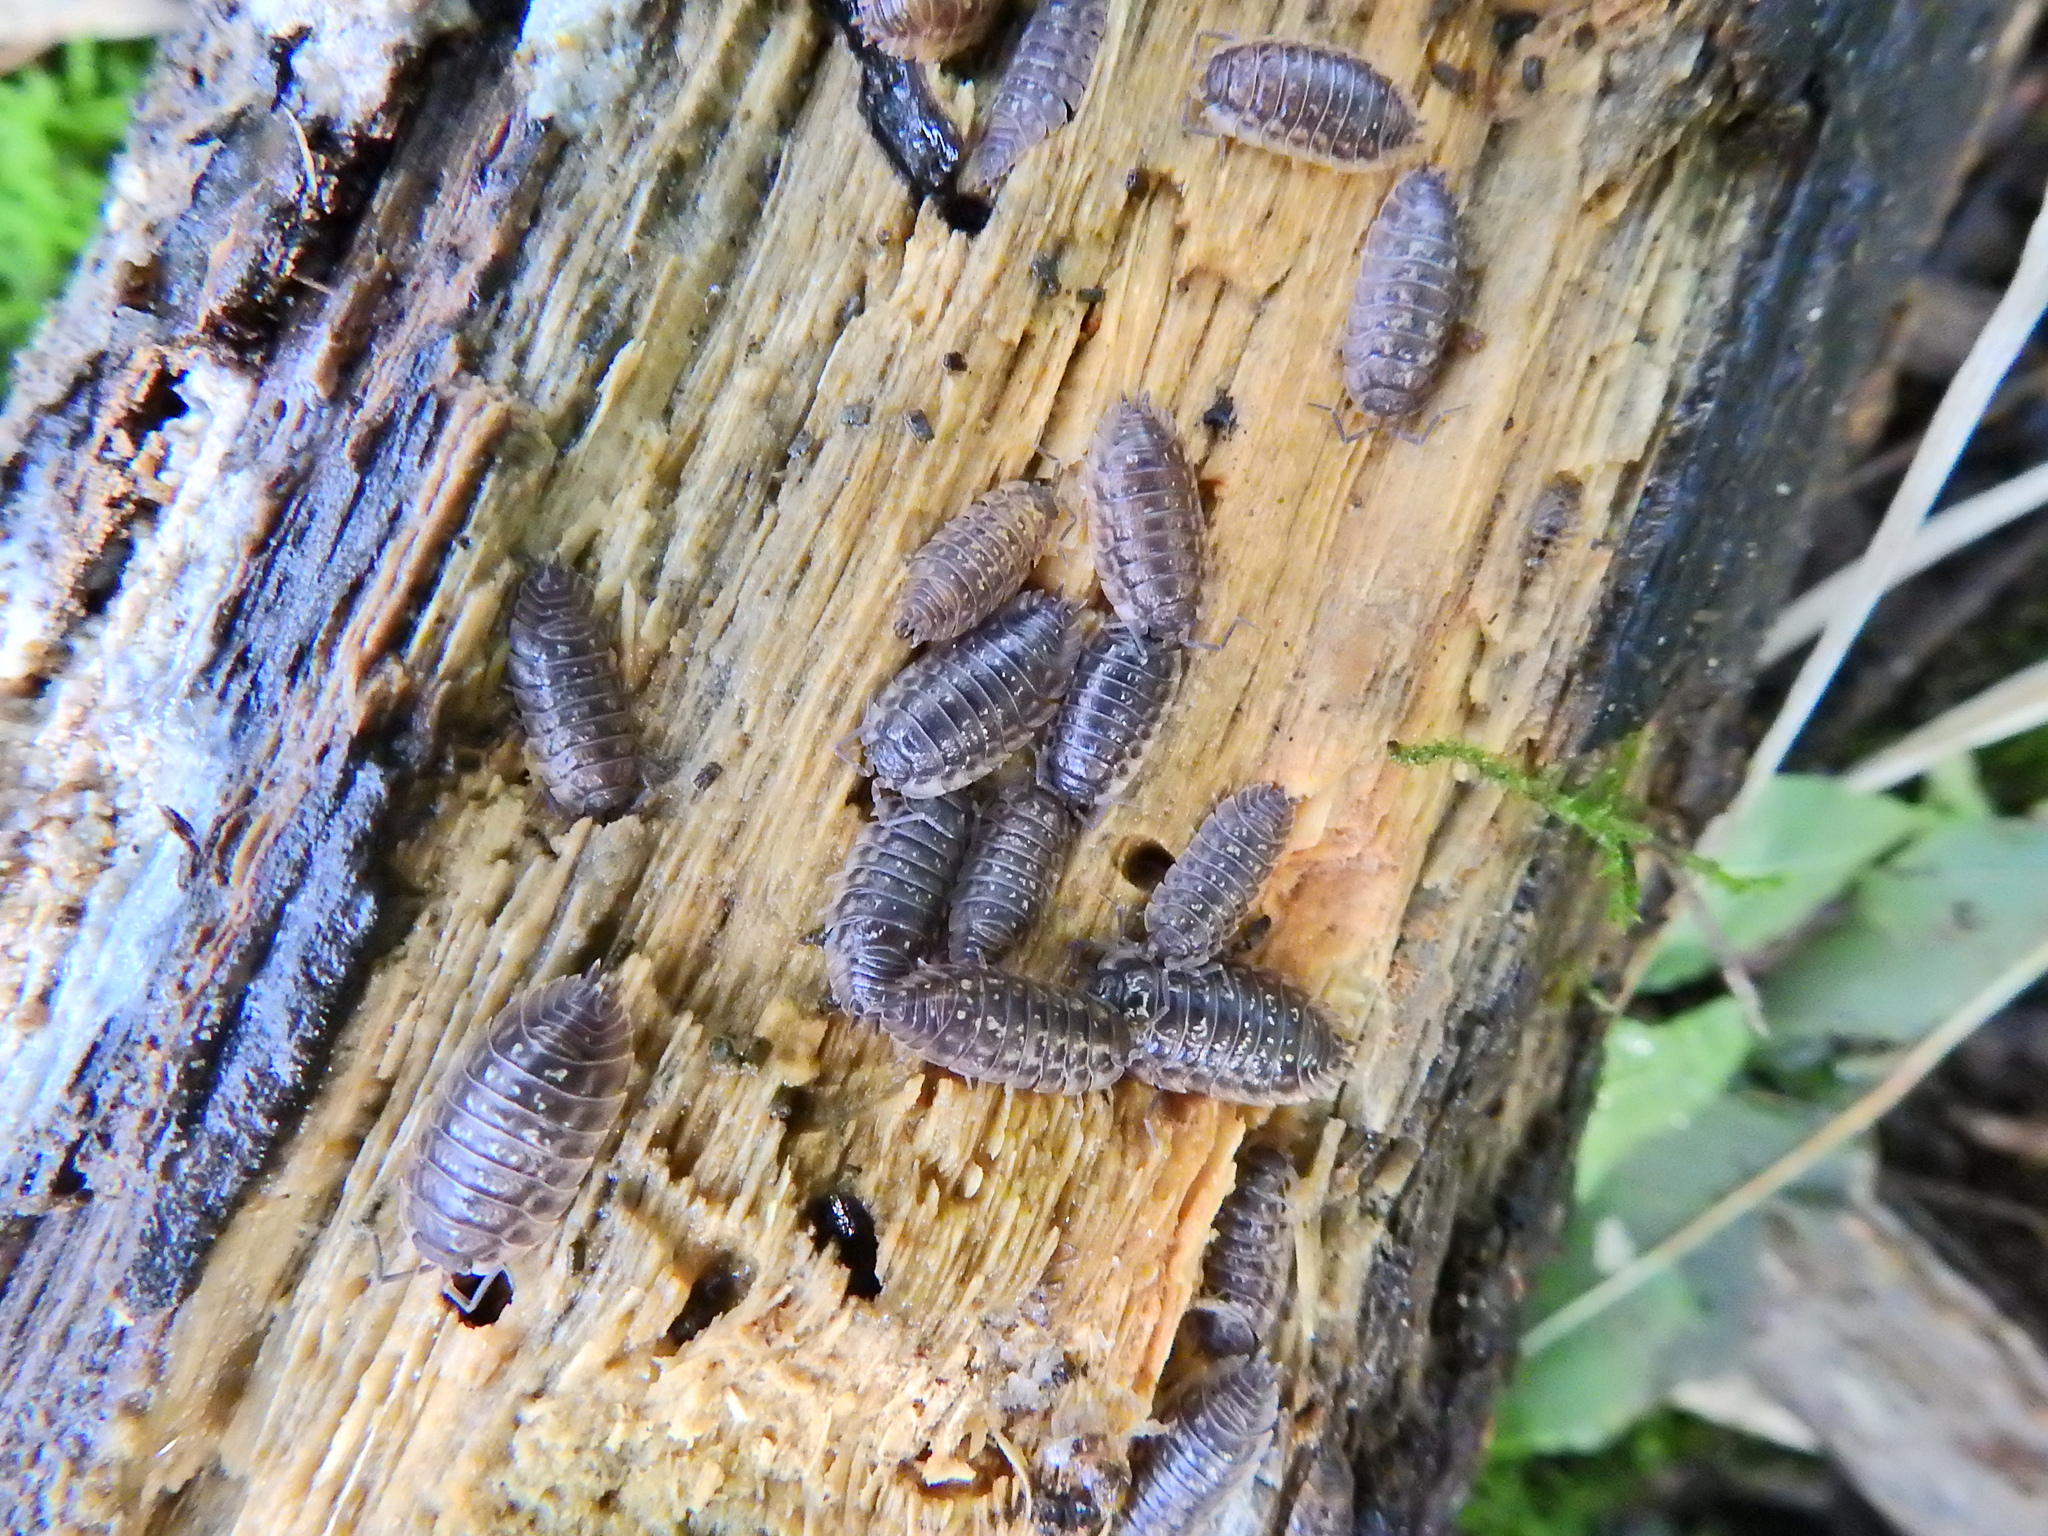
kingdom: Animalia
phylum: Arthropoda
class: Malacostraca
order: Isopoda
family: Oniscidae
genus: Oniscus
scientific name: Oniscus asellus
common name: Common shiny woodlouse
